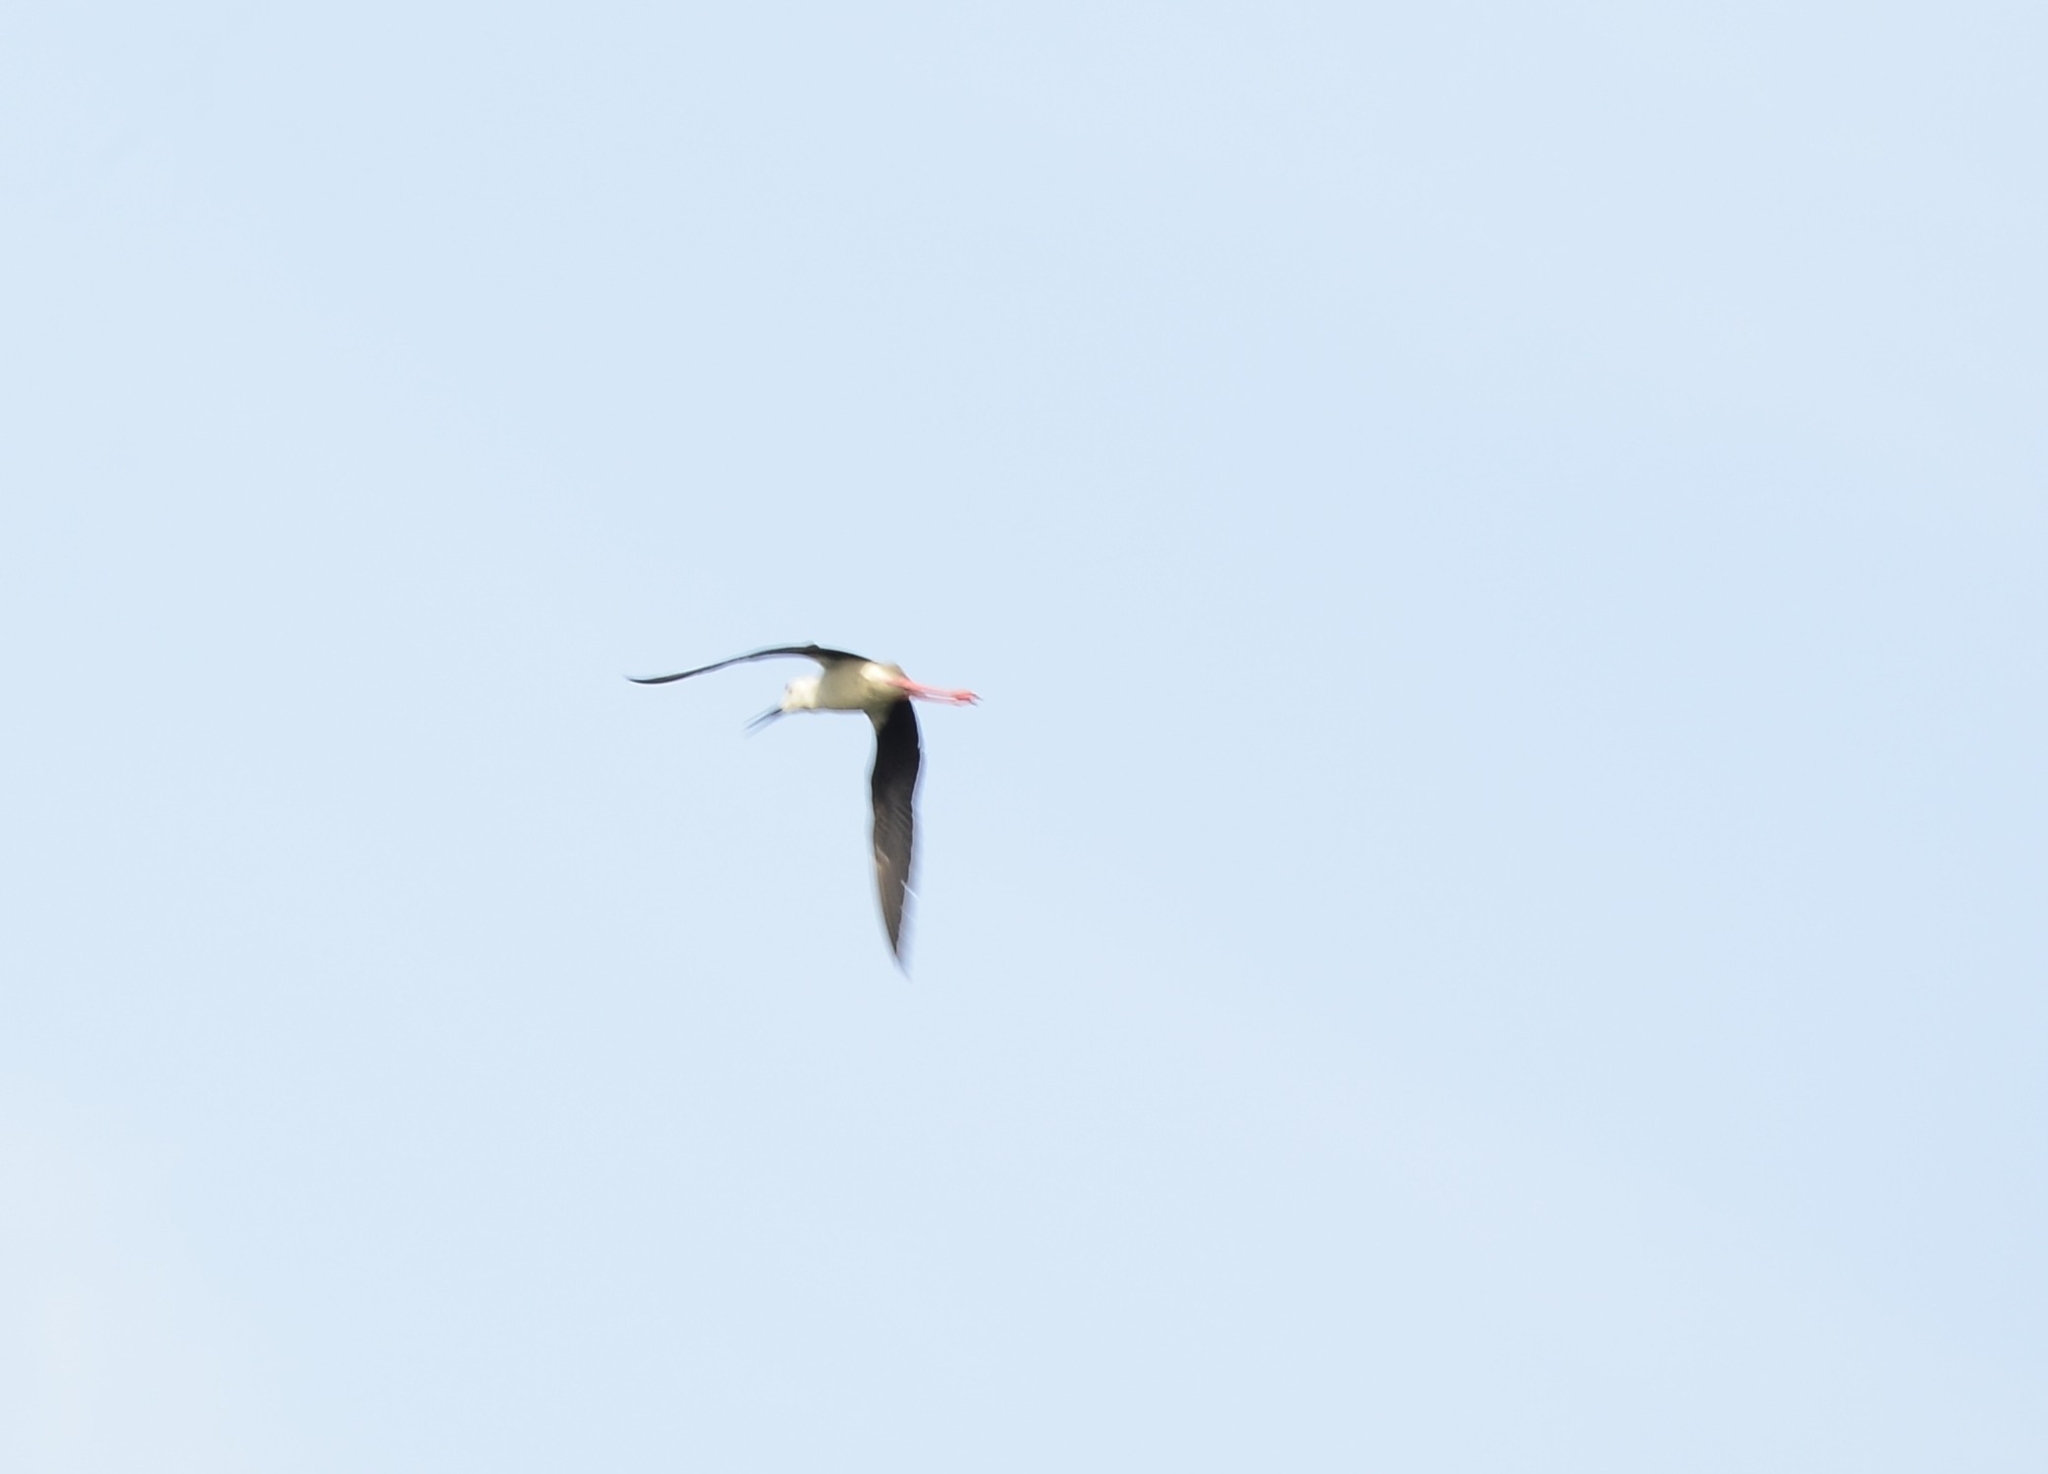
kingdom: Animalia
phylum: Chordata
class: Aves
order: Charadriiformes
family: Recurvirostridae
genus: Himantopus
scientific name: Himantopus himantopus
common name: Black-winged stilt
